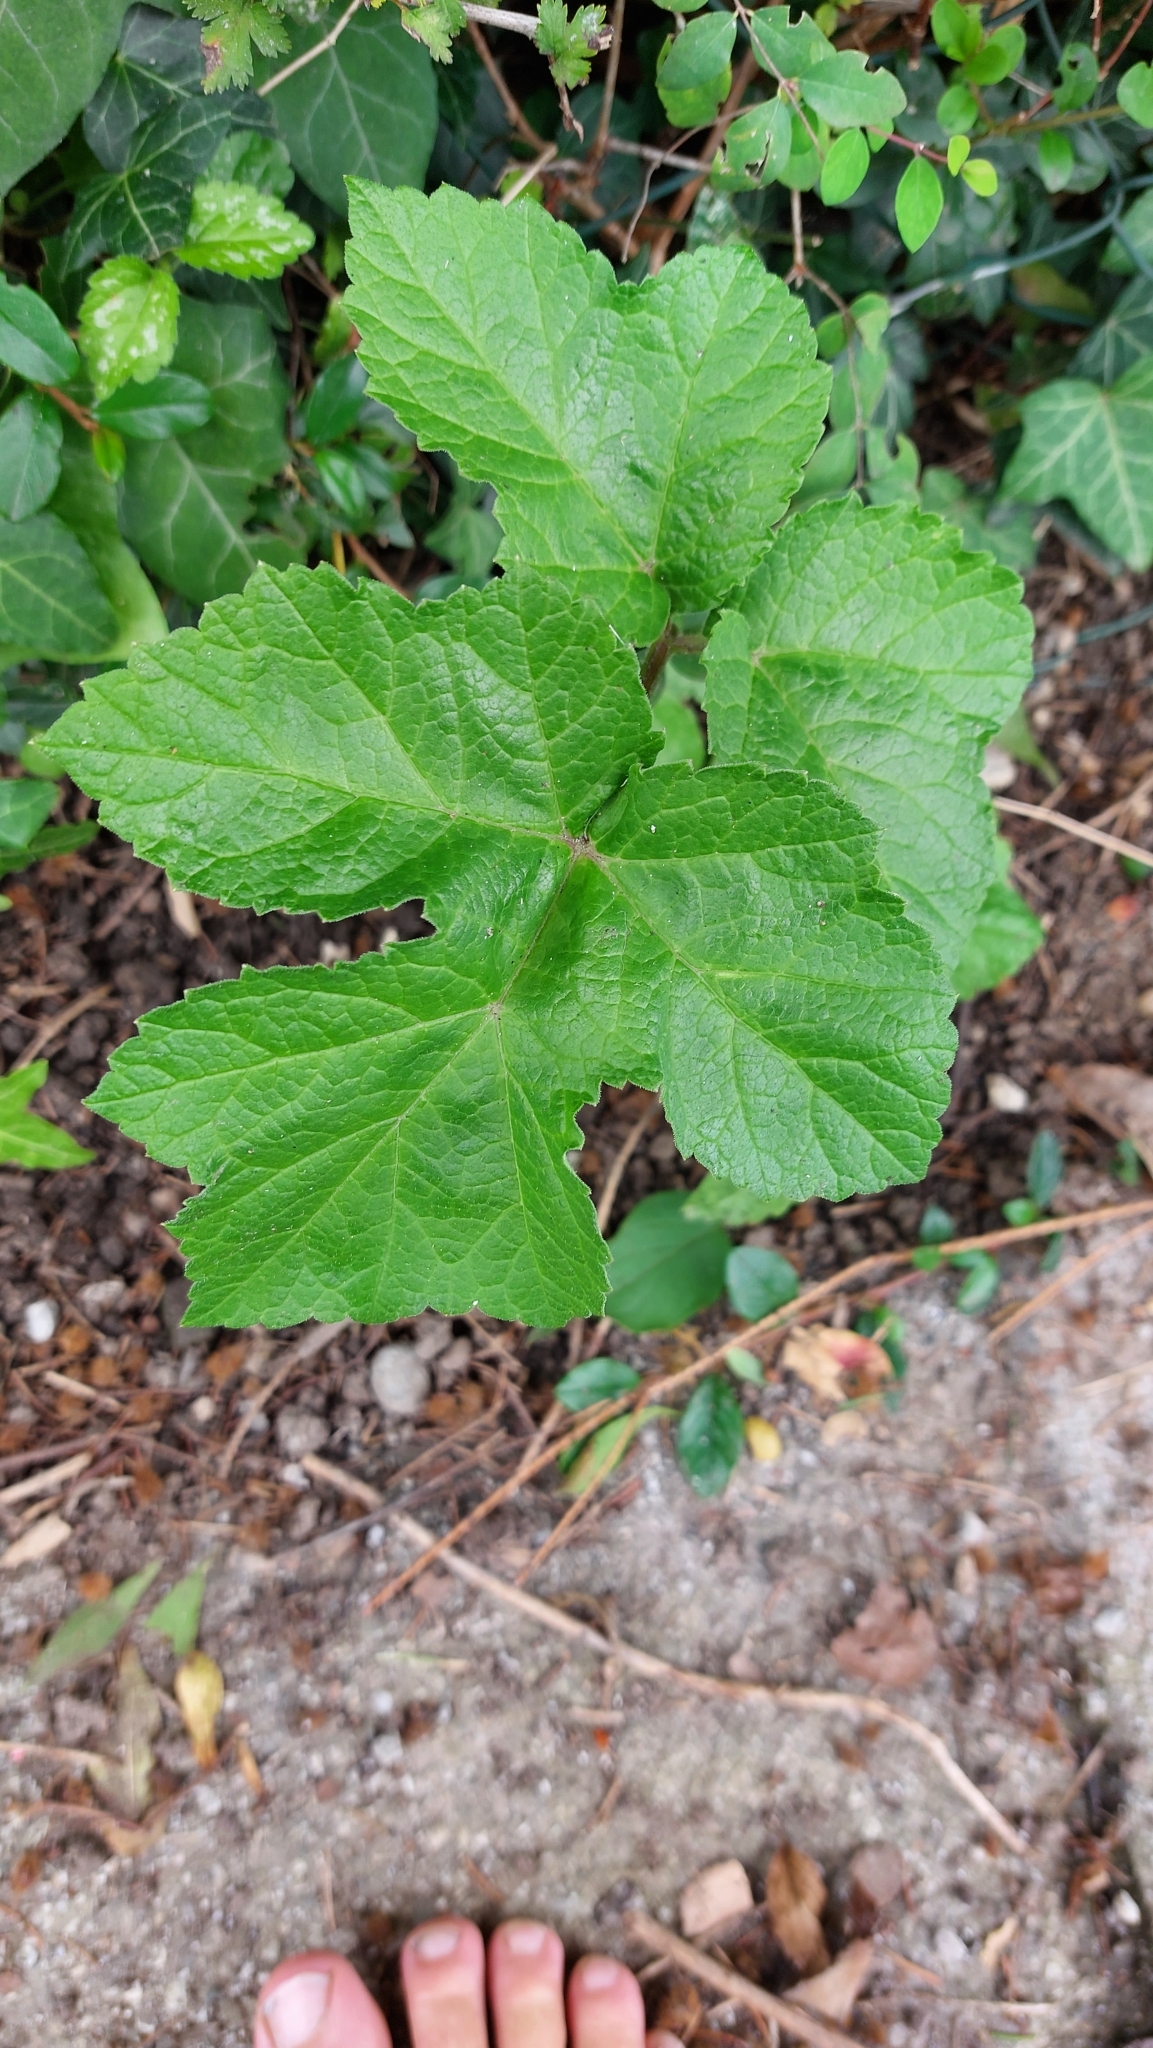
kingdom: Plantae
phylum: Tracheophyta
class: Magnoliopsida
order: Apiales
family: Apiaceae
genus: Heracleum
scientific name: Heracleum sphondylium
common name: Hogweed
